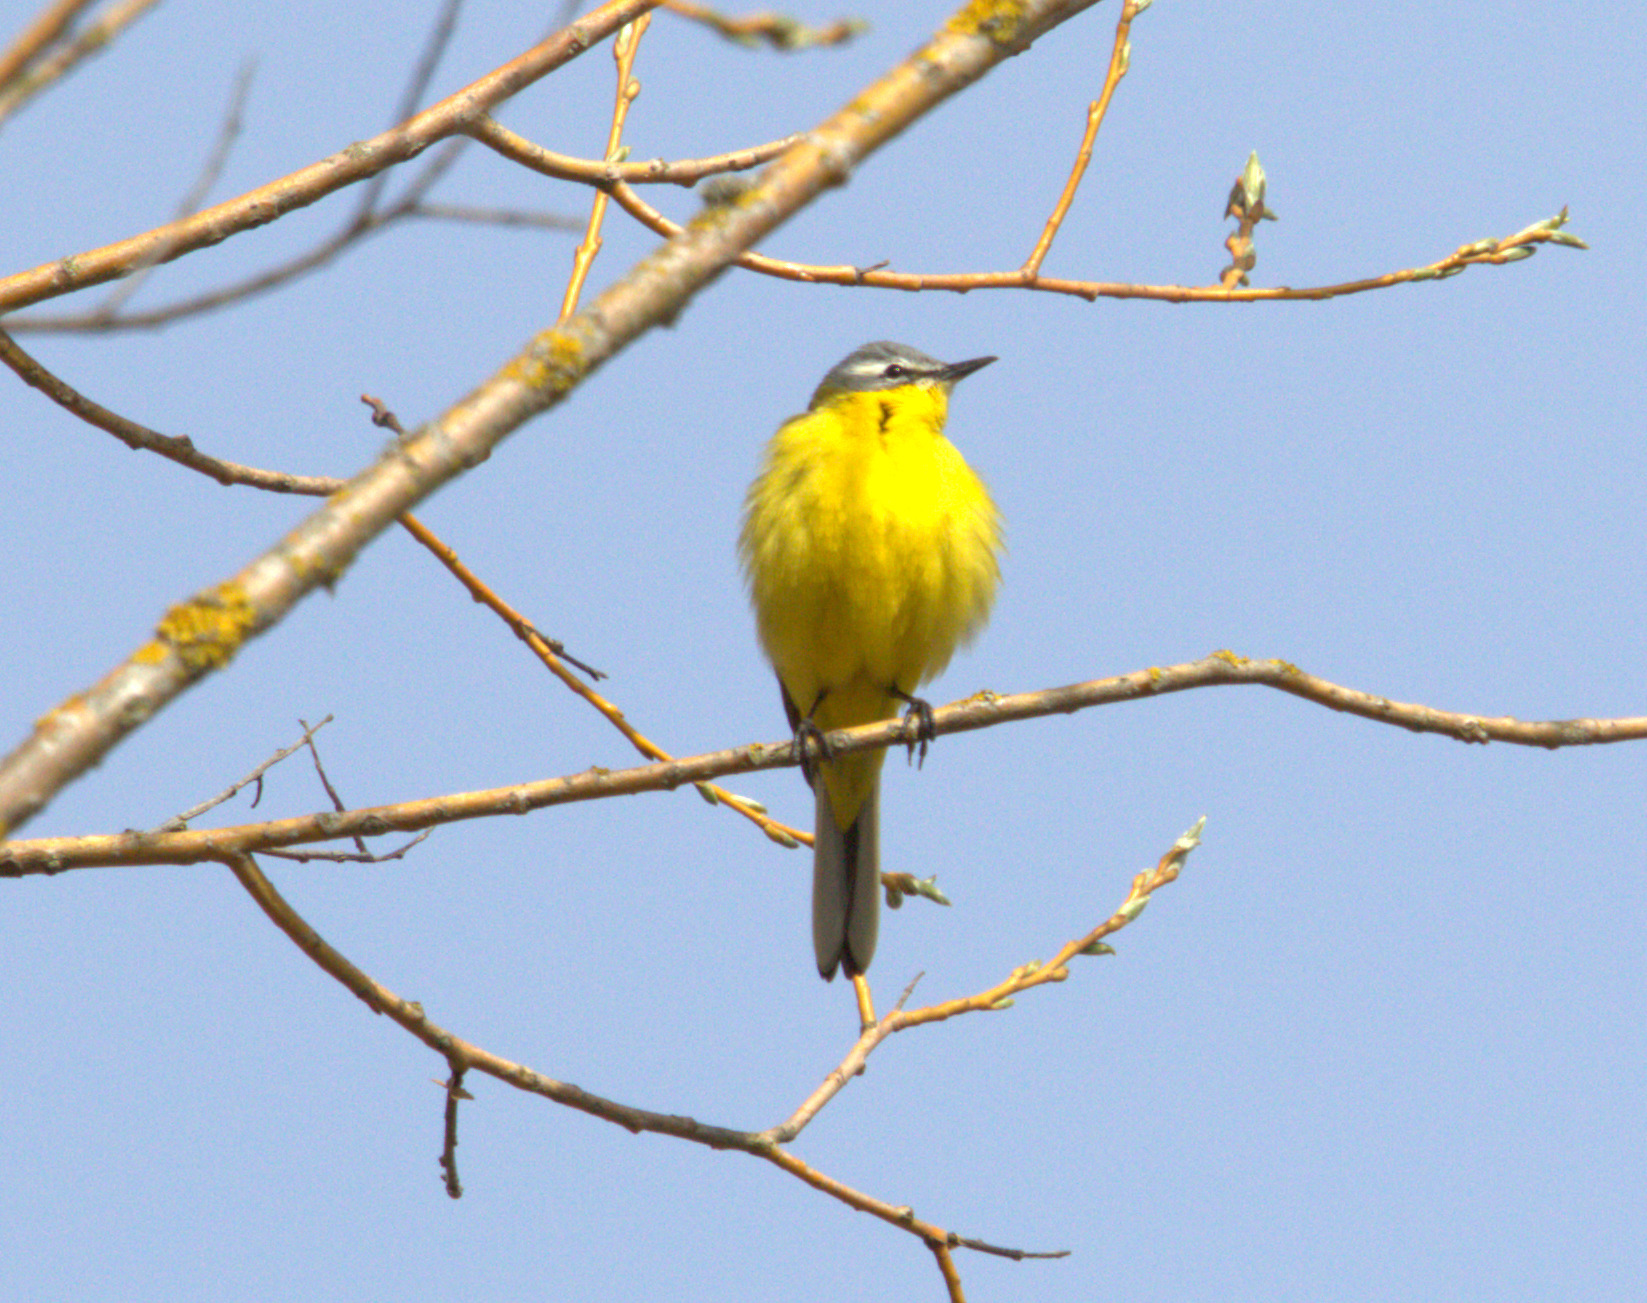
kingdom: Animalia
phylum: Chordata
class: Aves
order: Passeriformes
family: Motacillidae
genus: Motacilla
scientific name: Motacilla flava
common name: Western yellow wagtail
